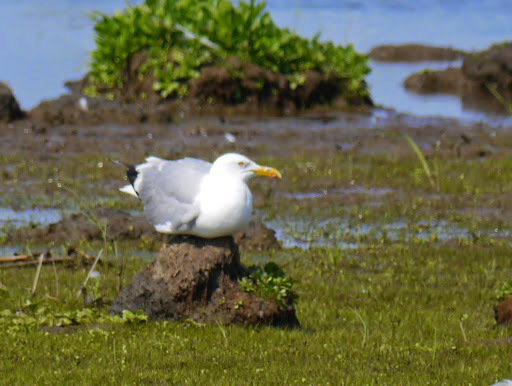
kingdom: Animalia
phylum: Chordata
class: Aves
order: Charadriiformes
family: Laridae
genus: Larus
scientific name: Larus argentatus
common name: Herring gull
